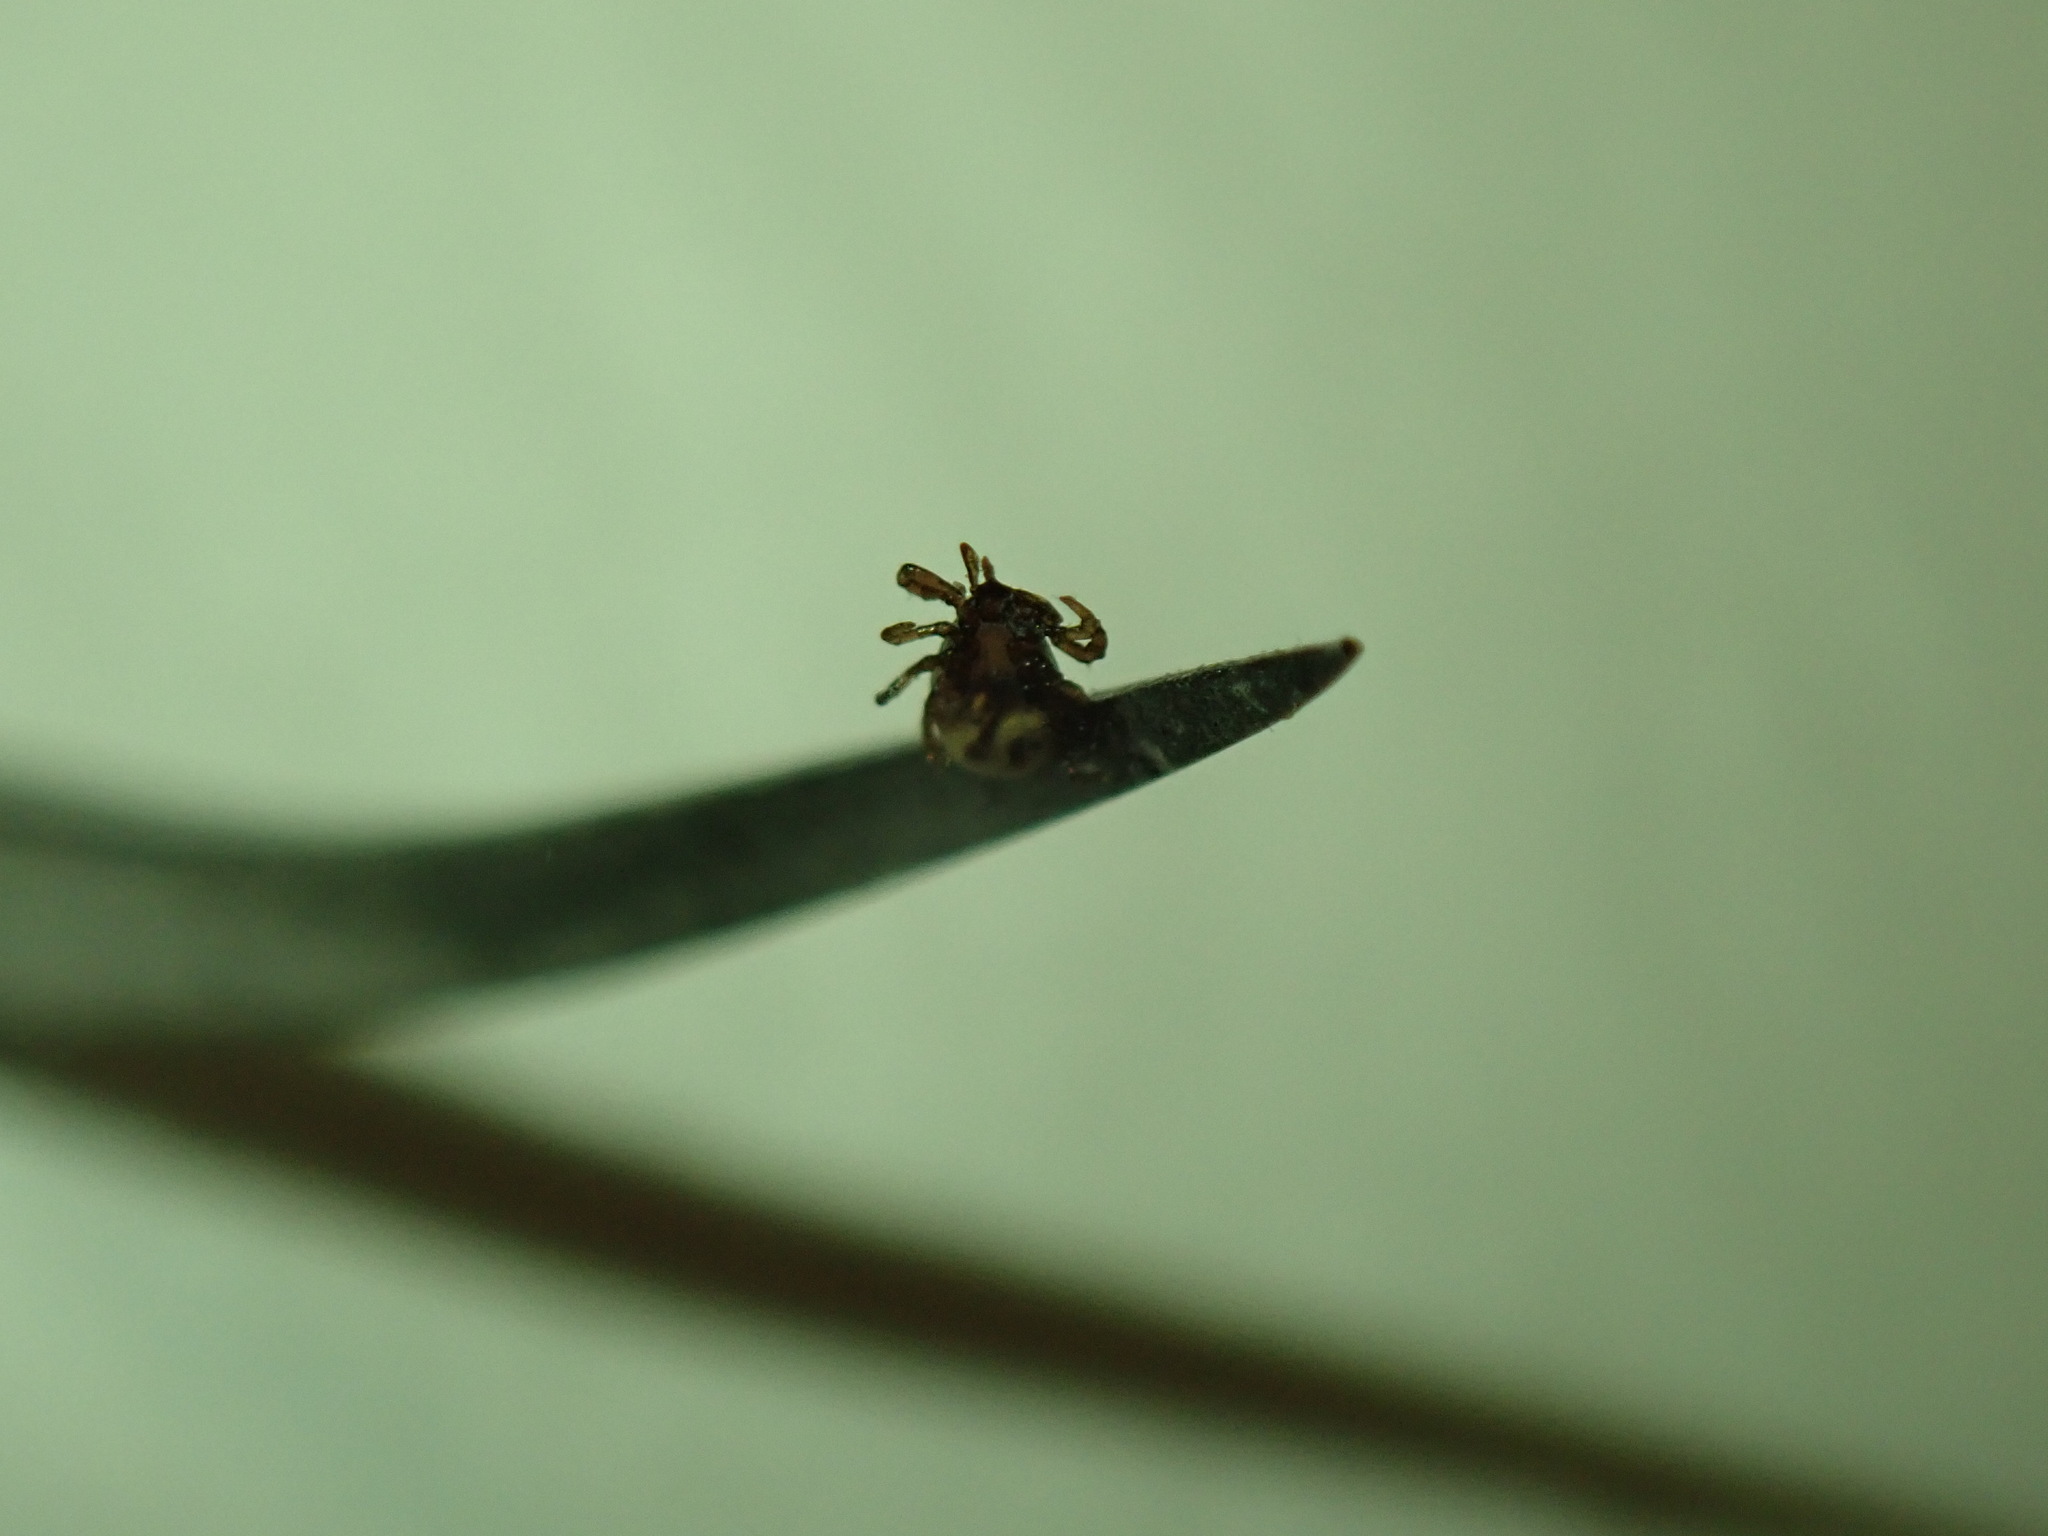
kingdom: Animalia
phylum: Arthropoda
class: Arachnida
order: Ixodida
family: Ixodidae
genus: Ixodes
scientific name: Ixodes scapularis
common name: Black legged tick
